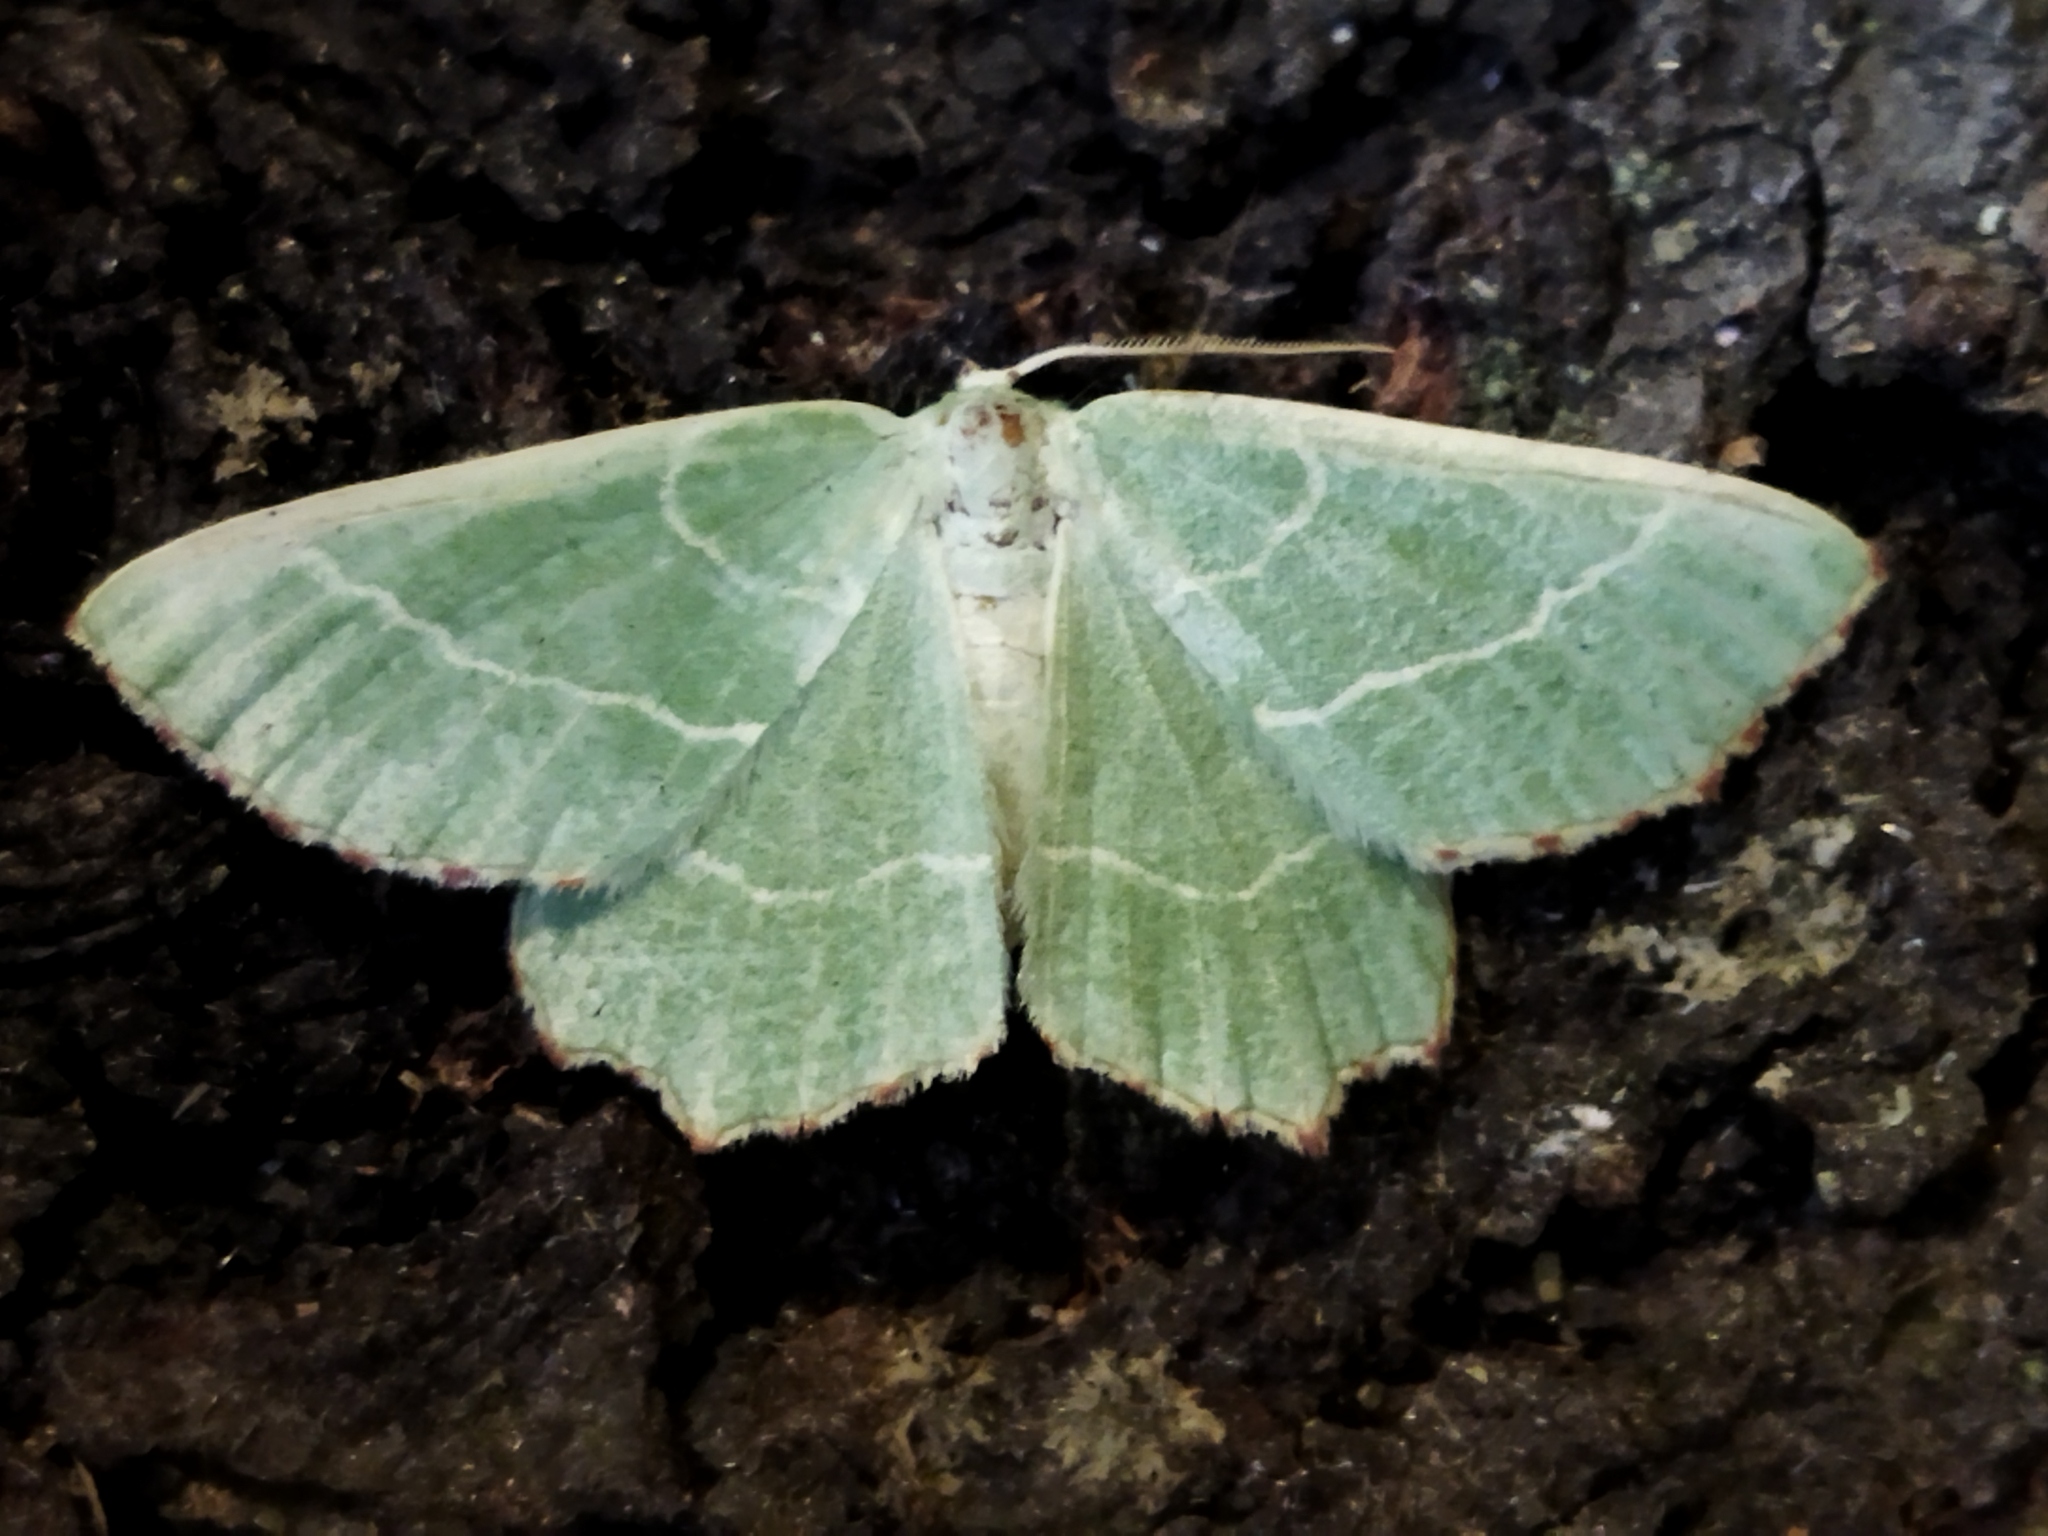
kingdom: Animalia
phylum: Arthropoda
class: Insecta
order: Lepidoptera
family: Geometridae
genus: Thalera
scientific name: Thalera fimbrialis
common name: Sussex emerald
